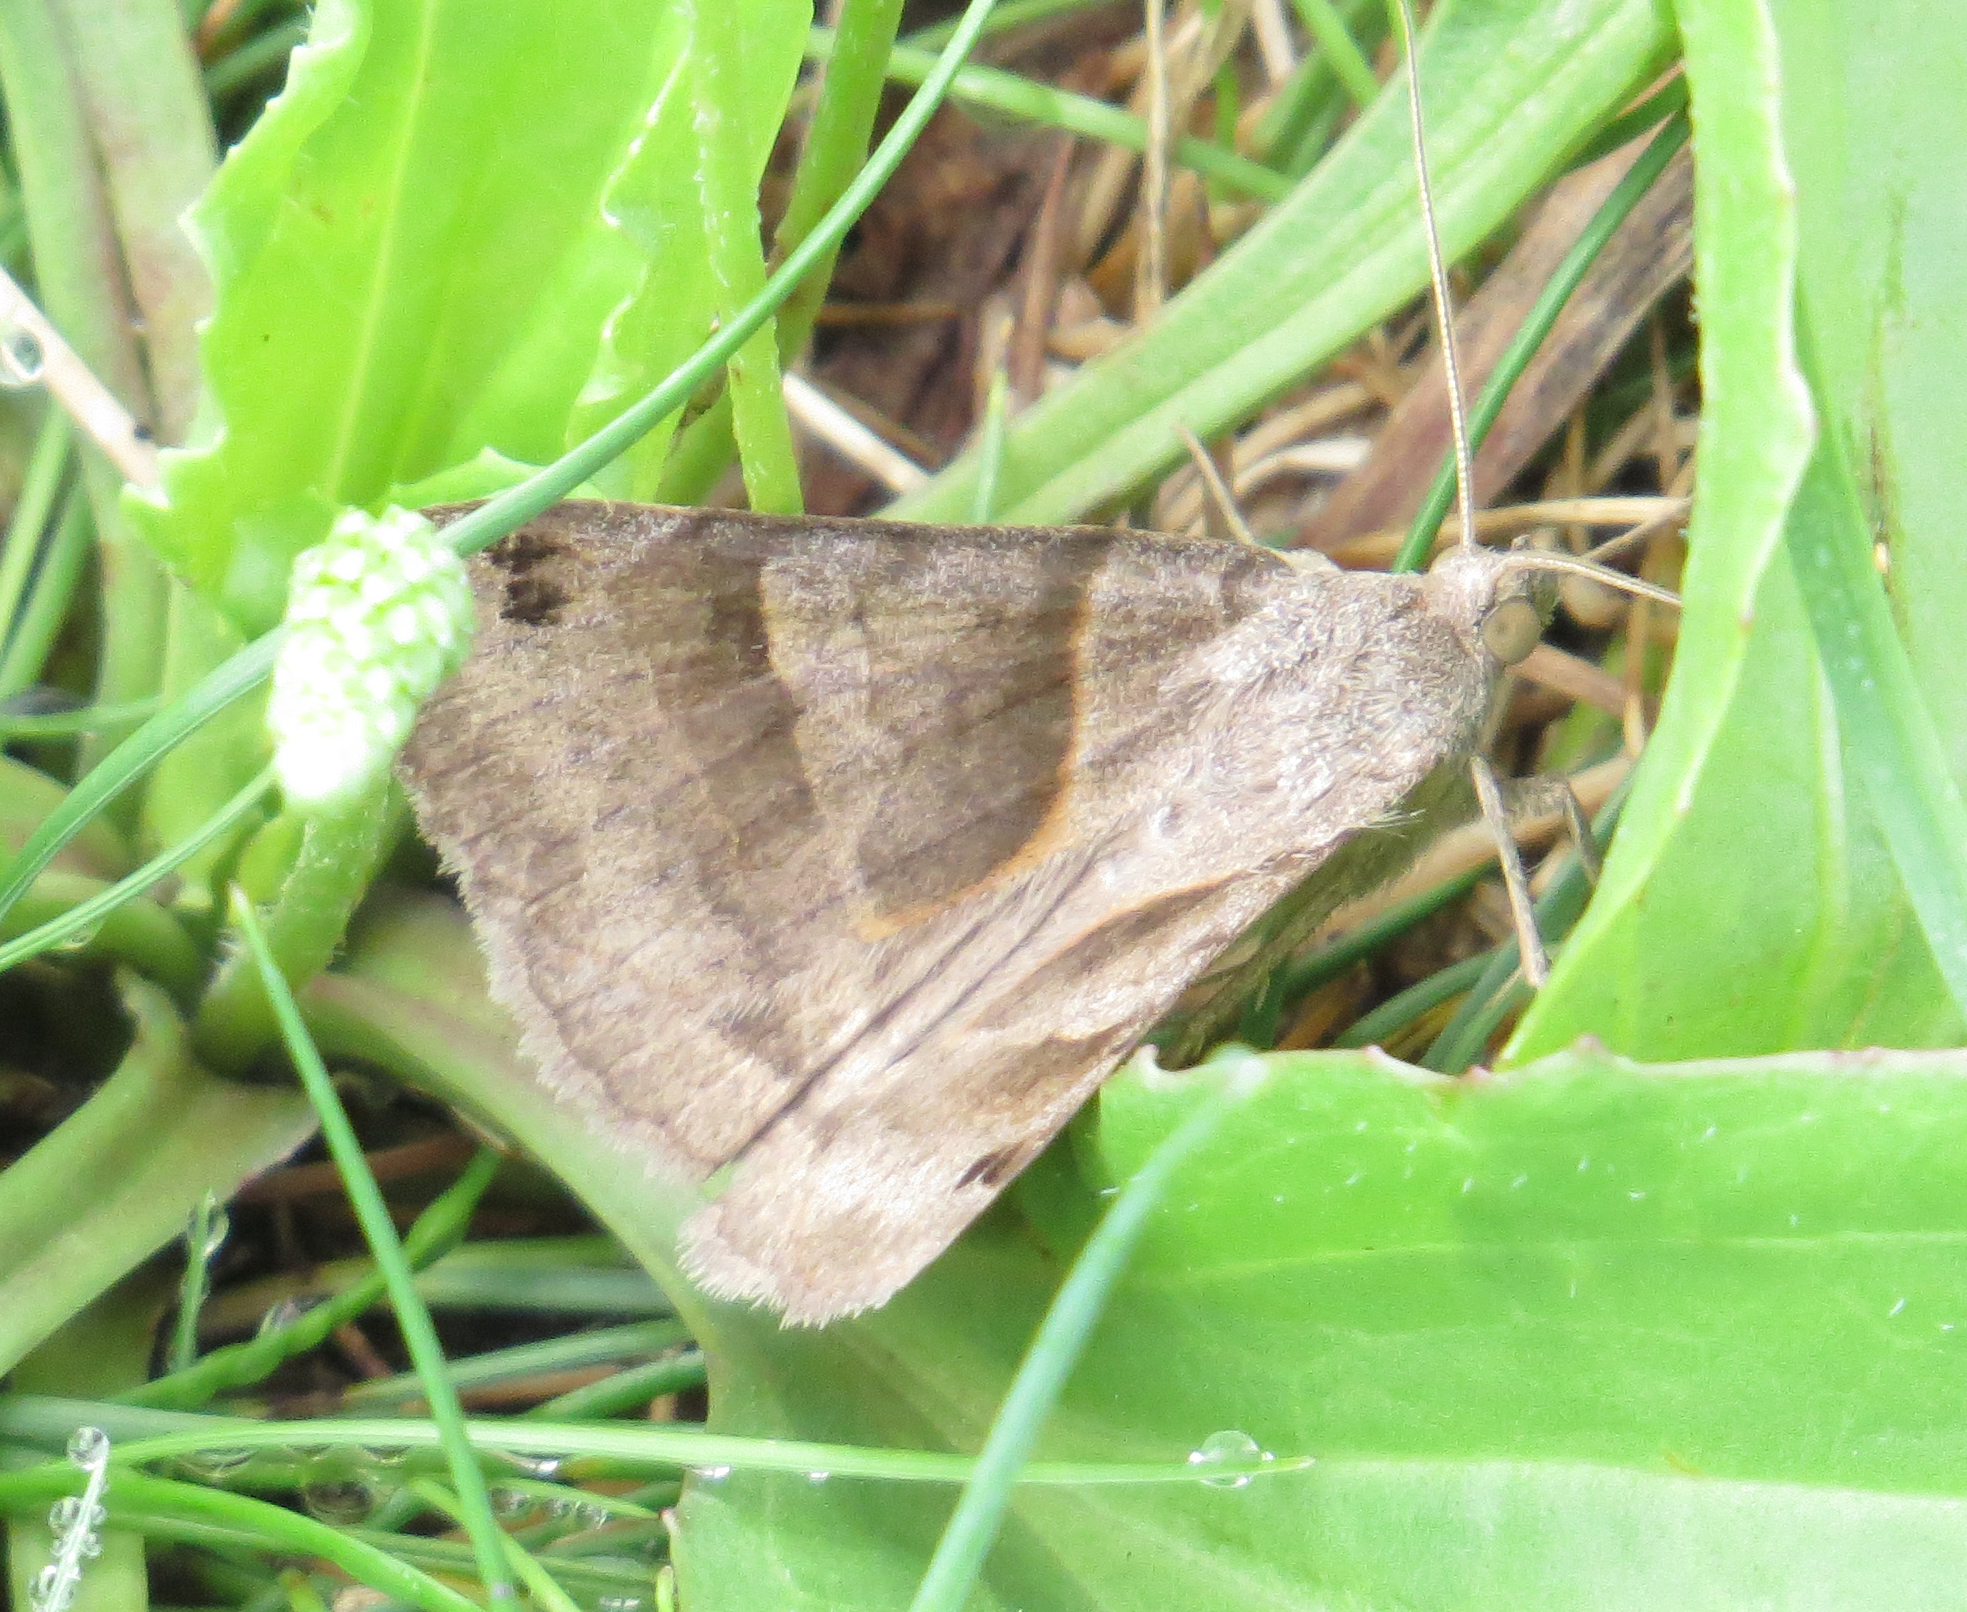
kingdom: Animalia
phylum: Arthropoda
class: Insecta
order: Lepidoptera
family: Erebidae
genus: Caenurgina
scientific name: Caenurgina erechtea
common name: Forage looper moth
